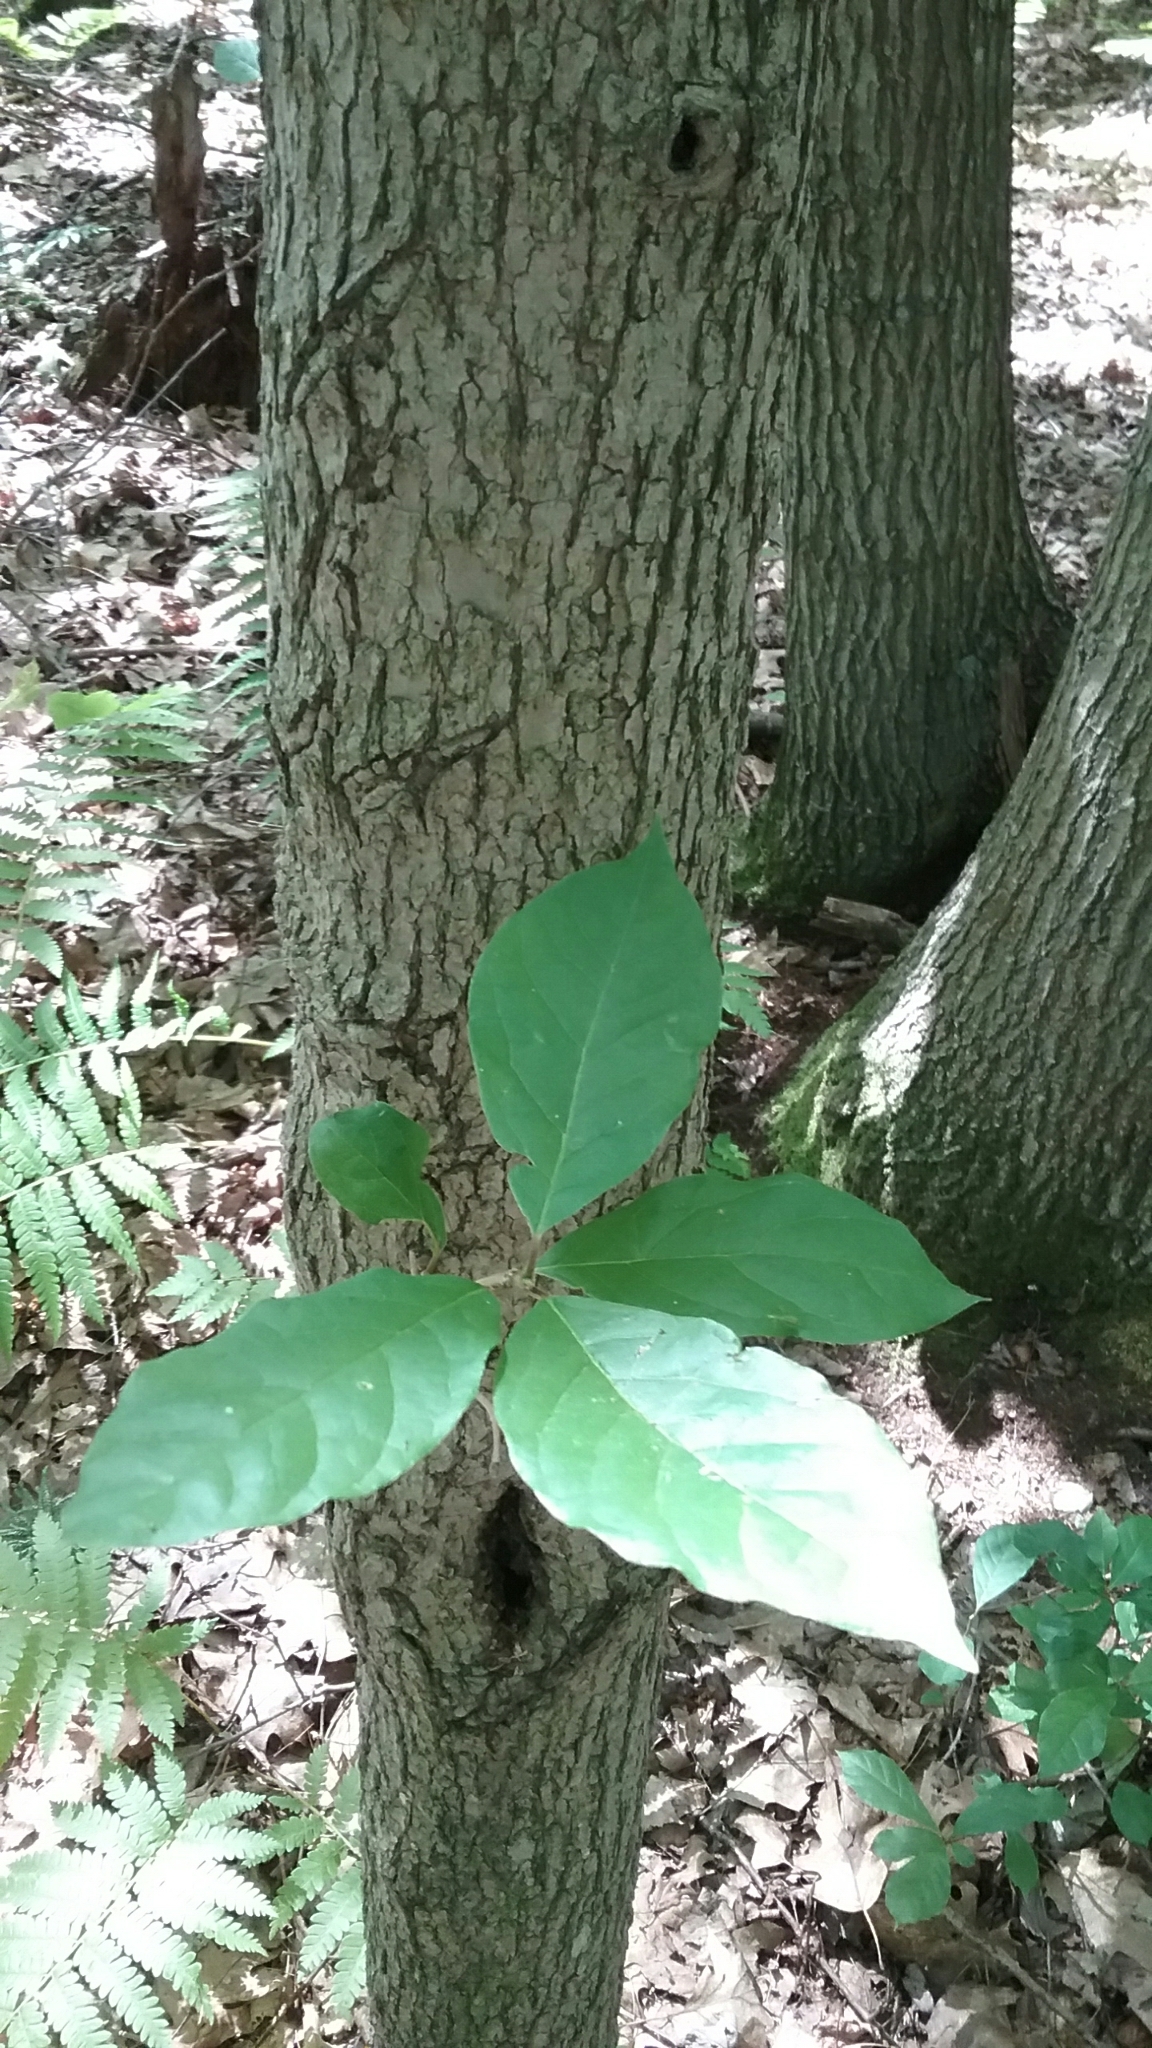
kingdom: Plantae
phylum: Tracheophyta
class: Magnoliopsida
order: Cornales
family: Nyssaceae
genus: Nyssa
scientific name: Nyssa sylvatica
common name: Black tupelo
